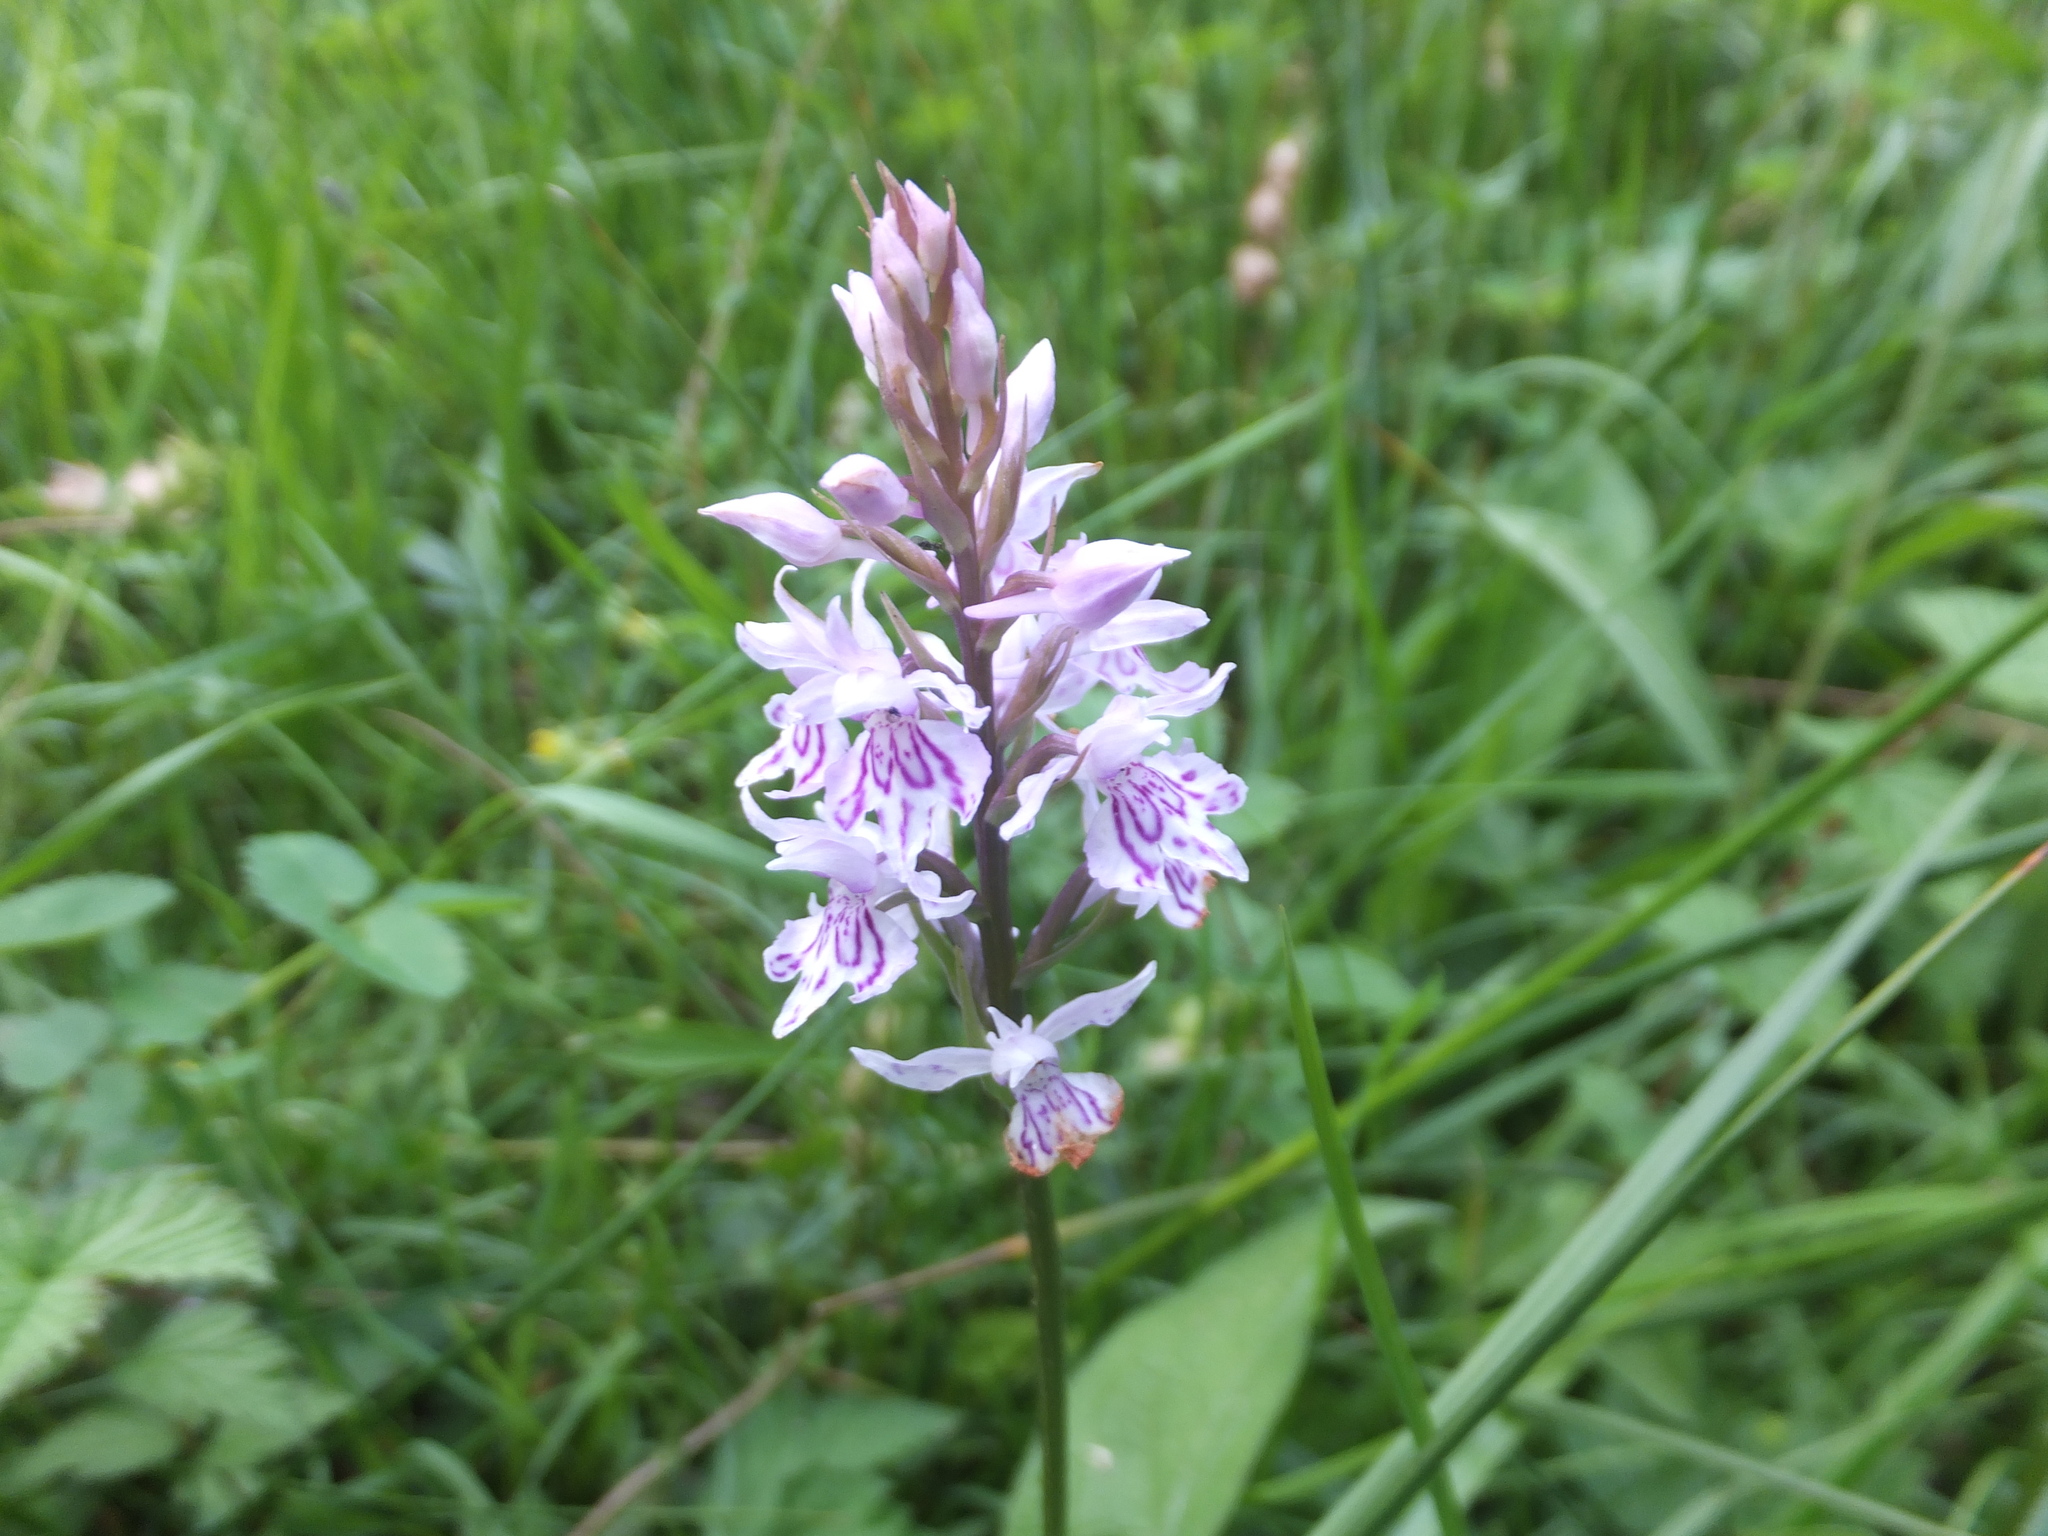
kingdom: Plantae
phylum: Tracheophyta
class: Liliopsida
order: Asparagales
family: Orchidaceae
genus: Dactylorhiza
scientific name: Dactylorhiza maculata
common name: Heath spotted-orchid
